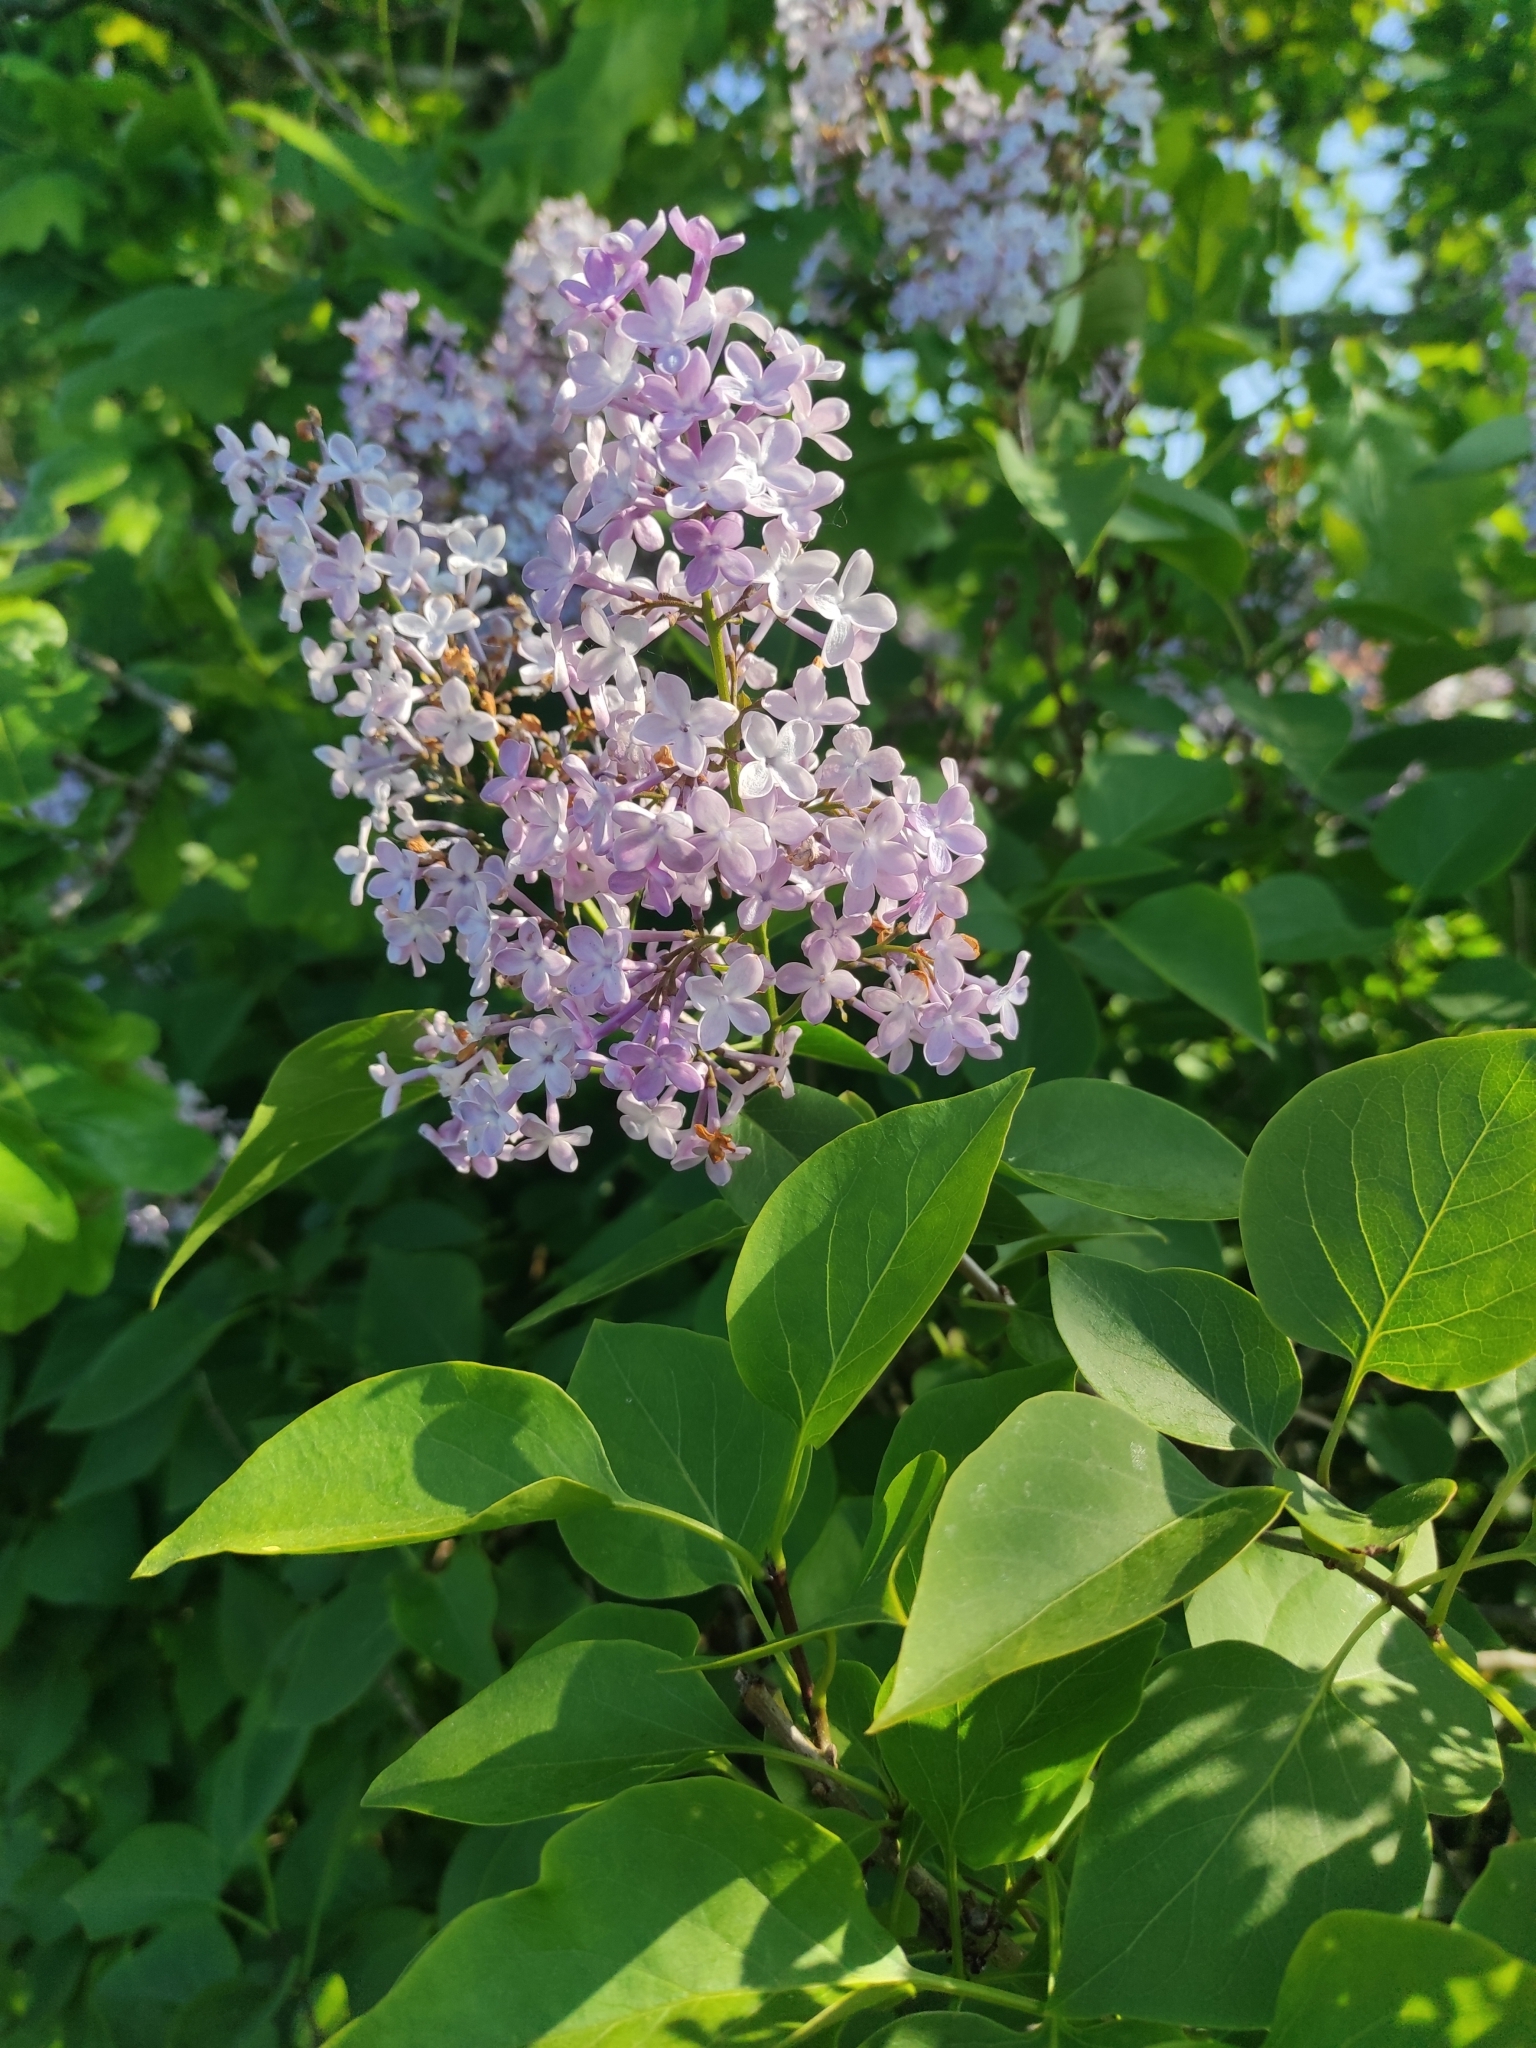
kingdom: Plantae
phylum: Tracheophyta
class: Magnoliopsida
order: Lamiales
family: Oleaceae
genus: Syringa
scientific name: Syringa vulgaris
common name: Common lilac
